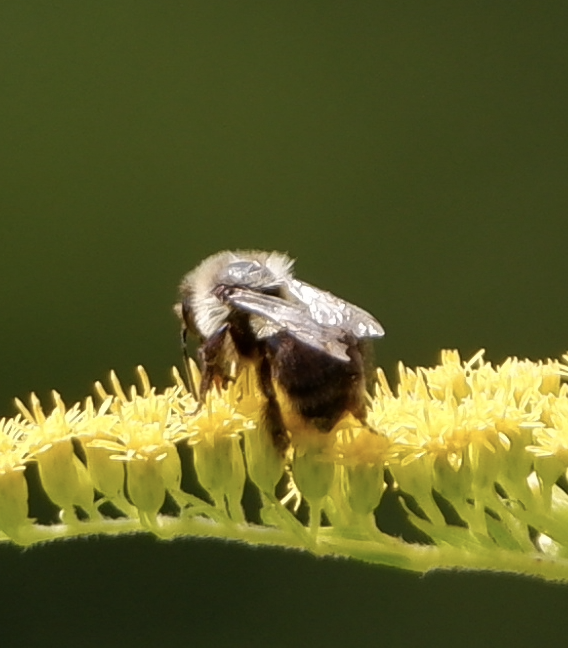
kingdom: Animalia
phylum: Arthropoda
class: Insecta
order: Hymenoptera
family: Apidae
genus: Bombus
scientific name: Bombus griseocollis
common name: Brown-belted bumble bee
